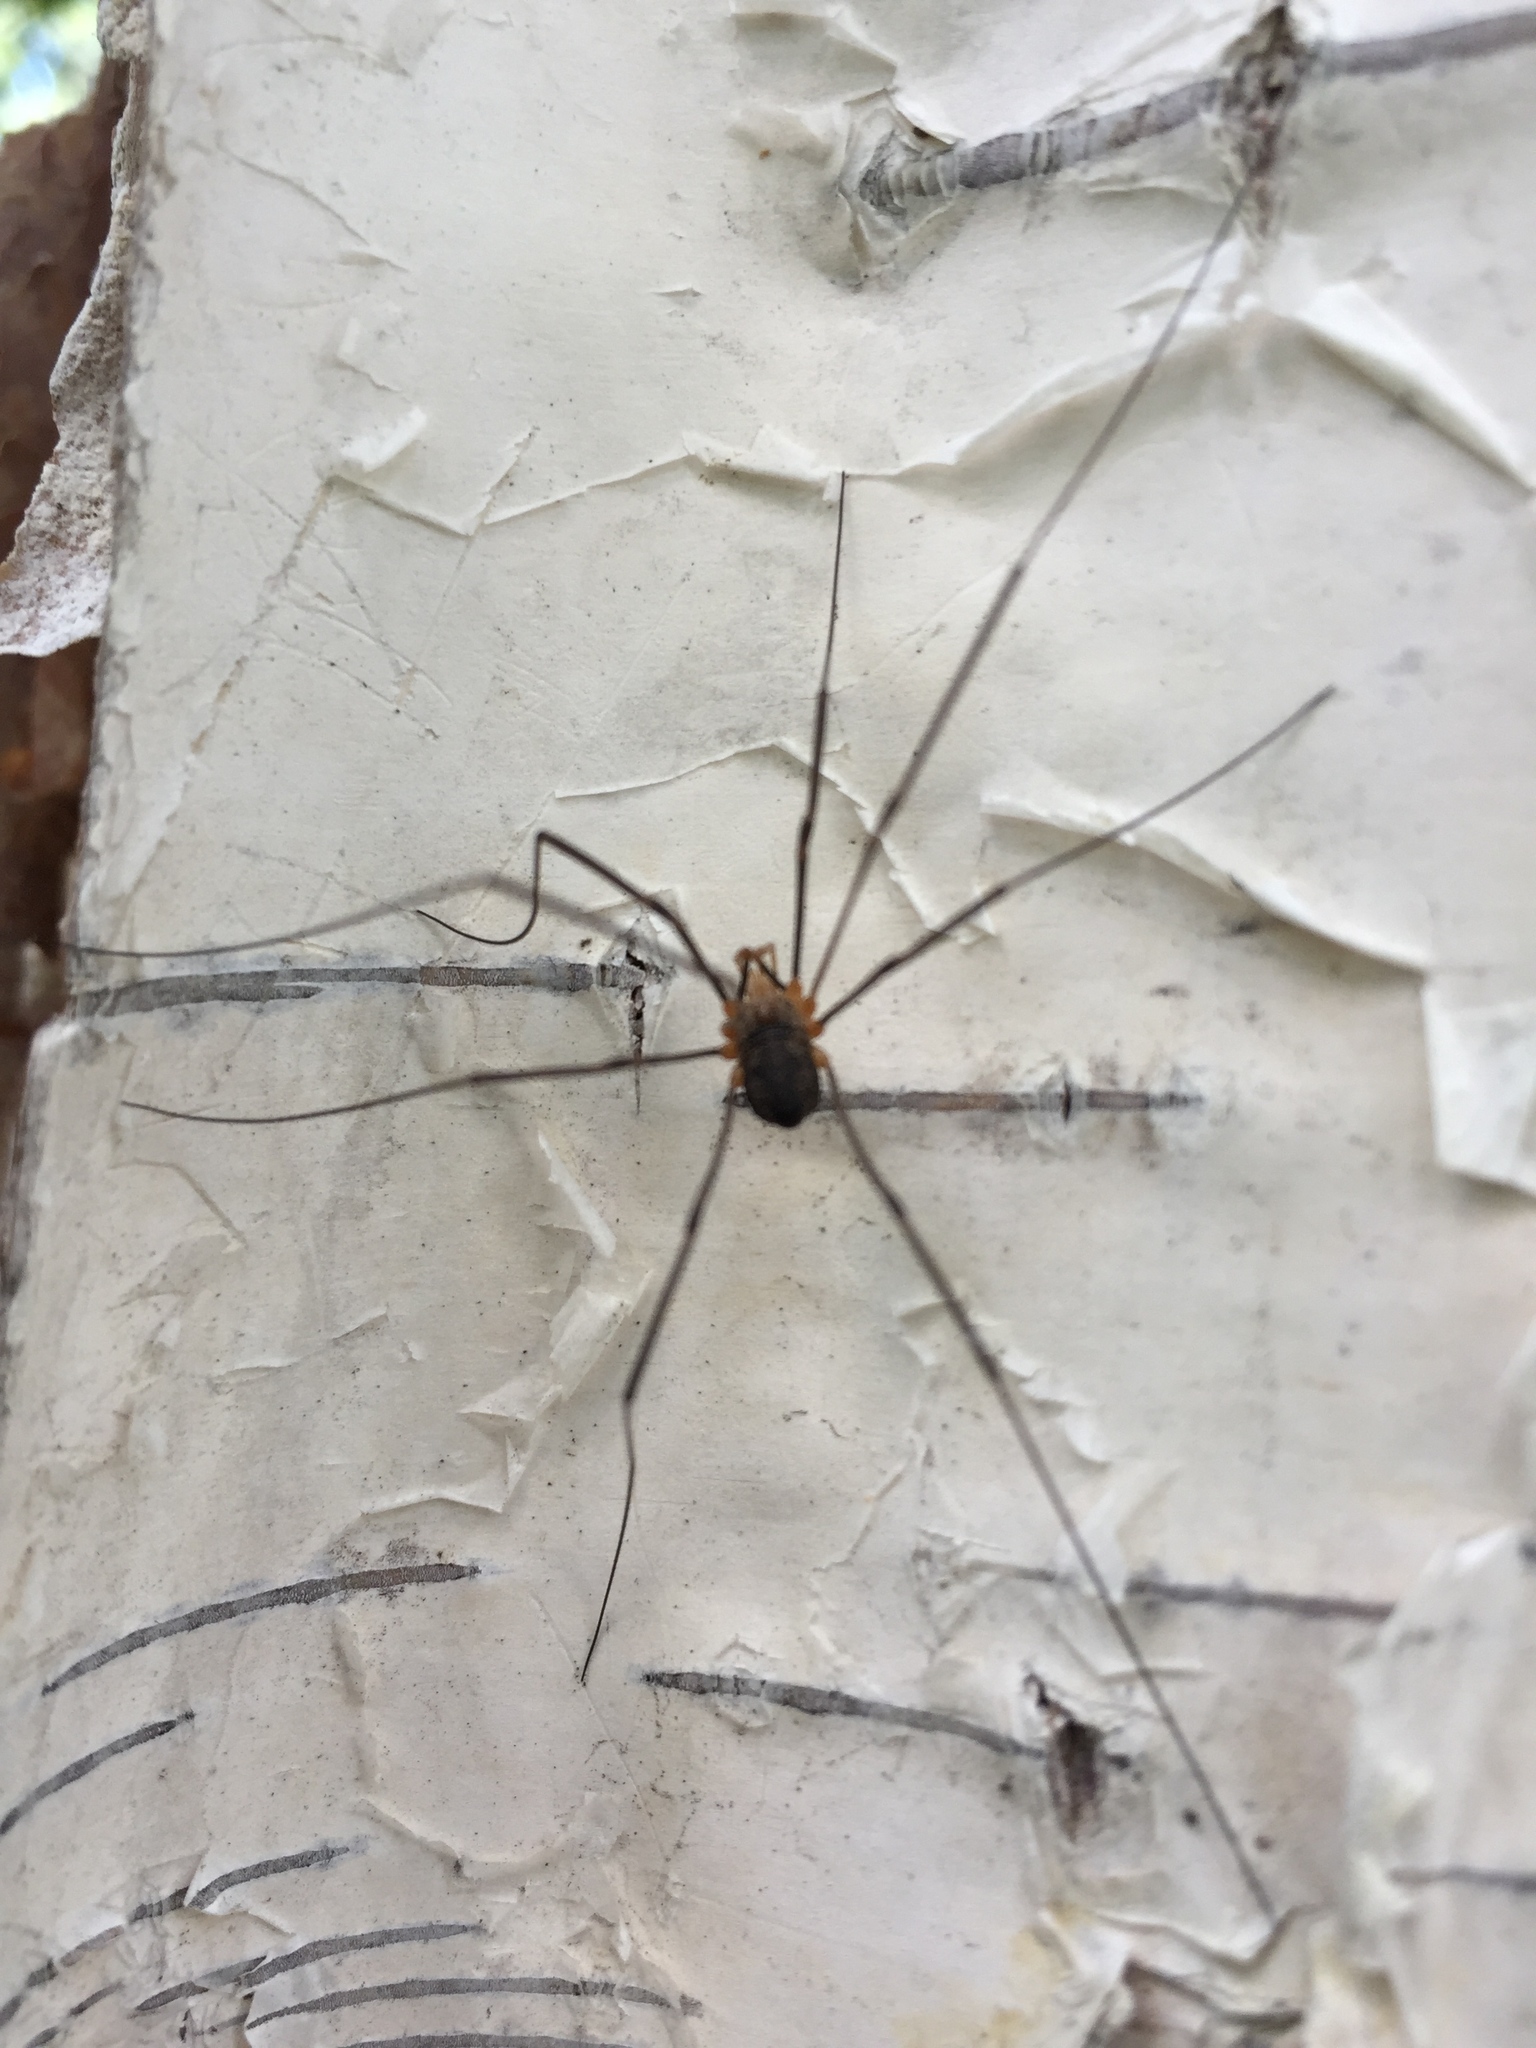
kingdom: Animalia
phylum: Arthropoda
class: Arachnida
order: Opiliones
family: Phalangiidae
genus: Phalangium
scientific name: Phalangium opilio
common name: Daddy longleg
